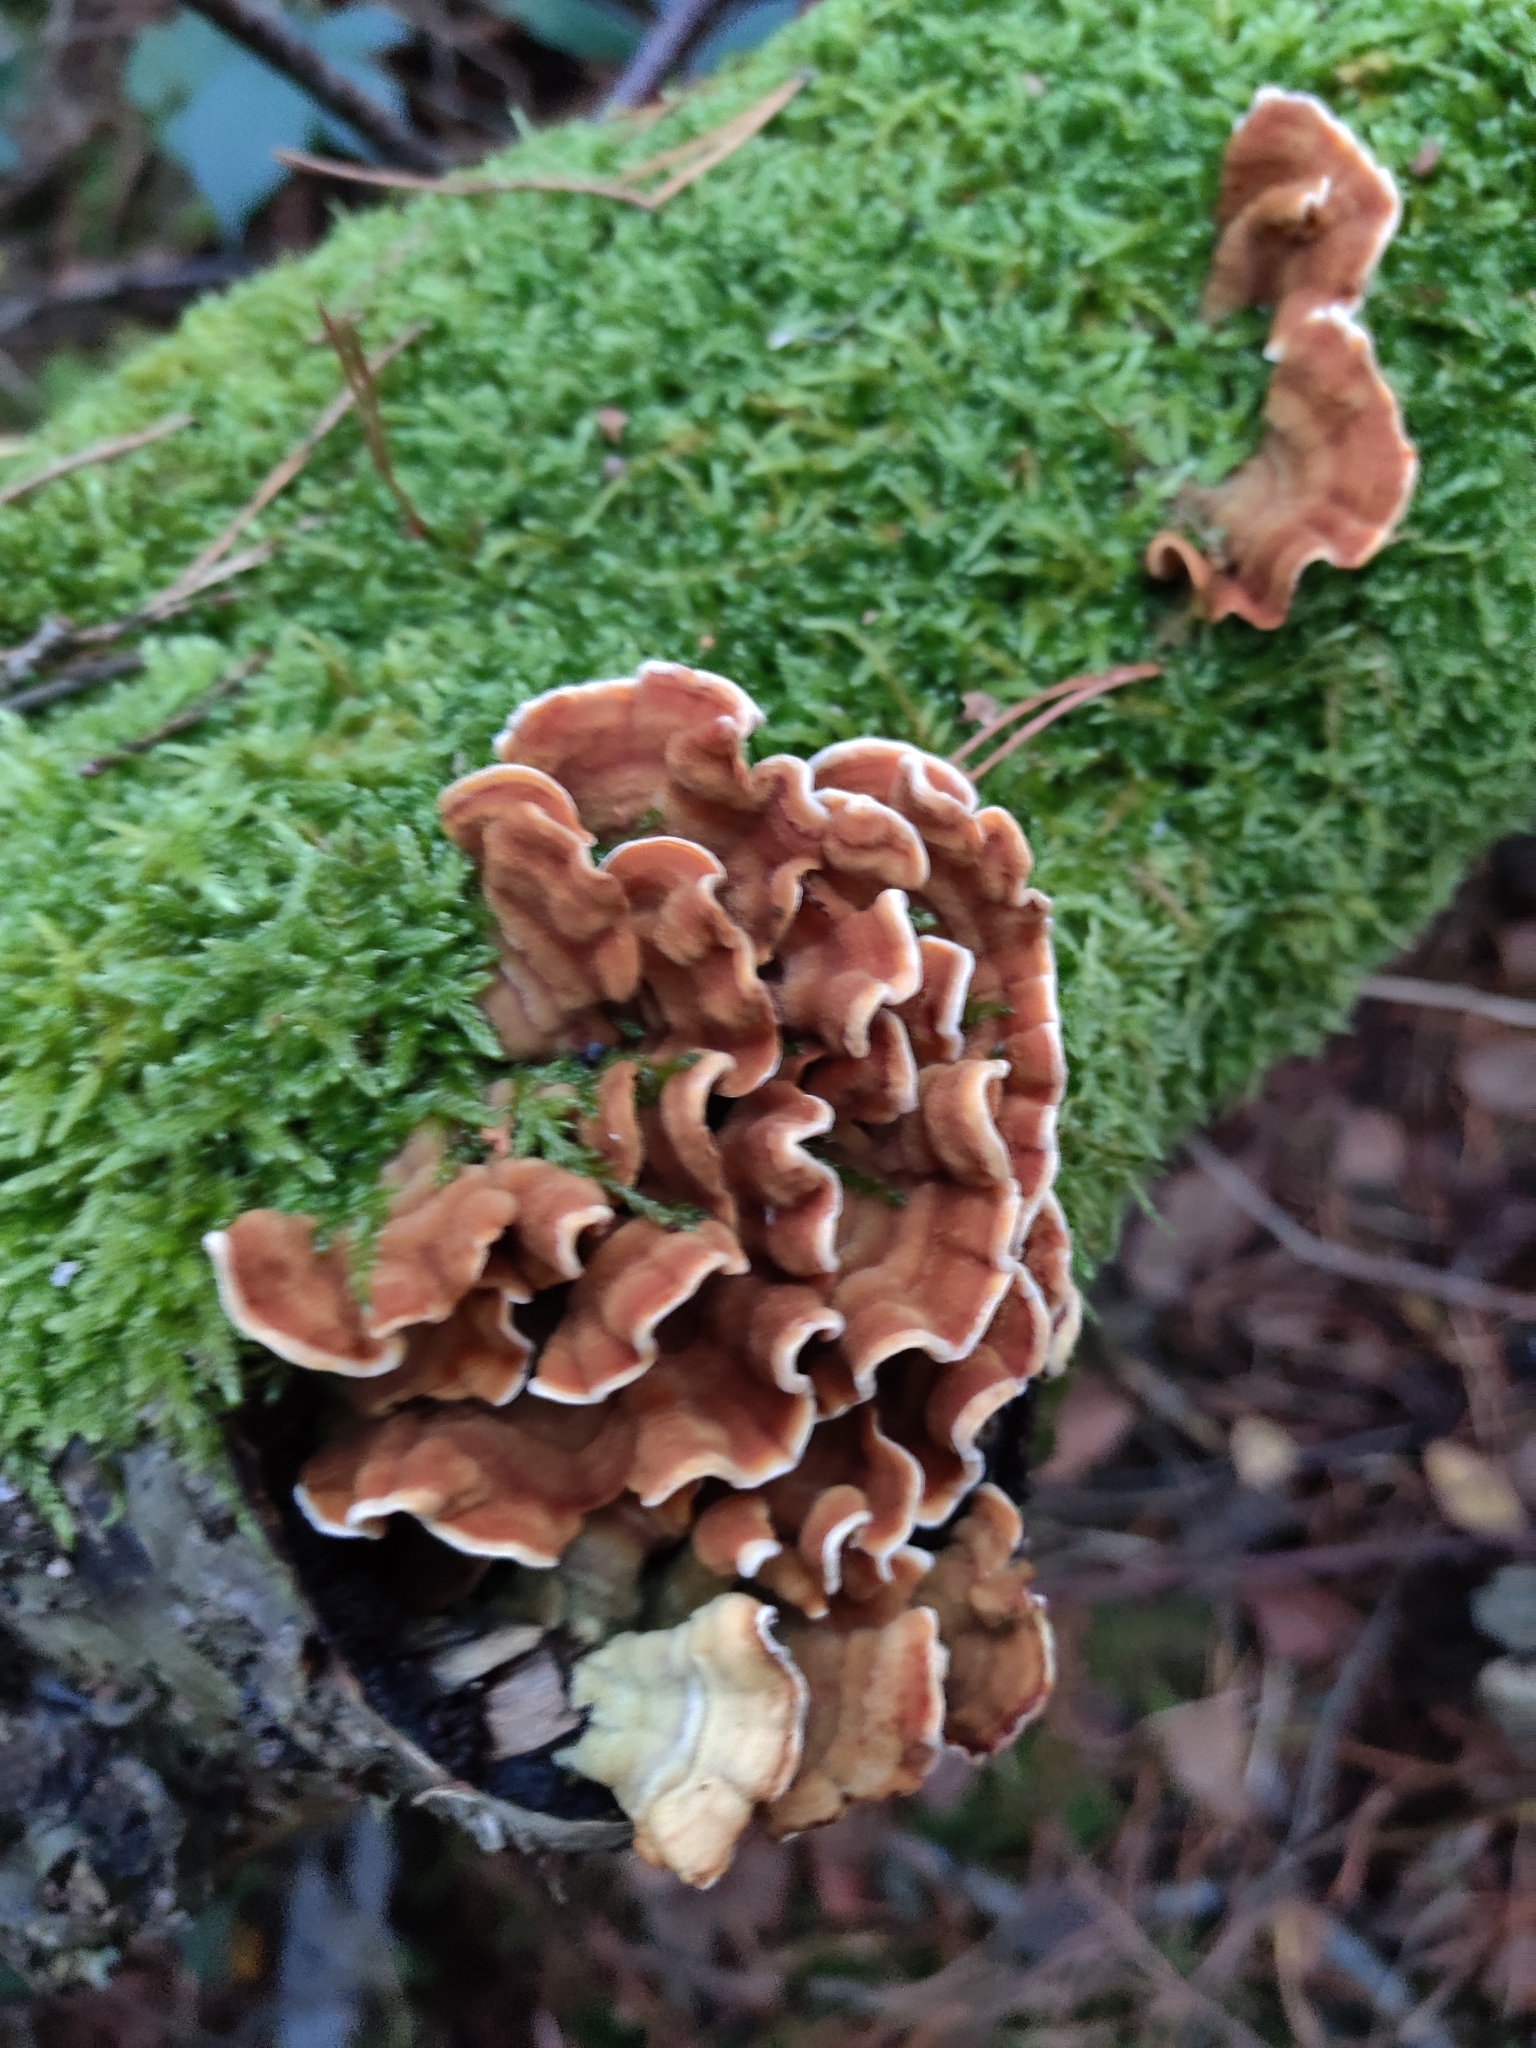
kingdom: Fungi
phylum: Basidiomycota
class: Agaricomycetes
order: Russulales
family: Stereaceae
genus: Stereum
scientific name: Stereum hirsutum
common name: Hairy curtain crust
